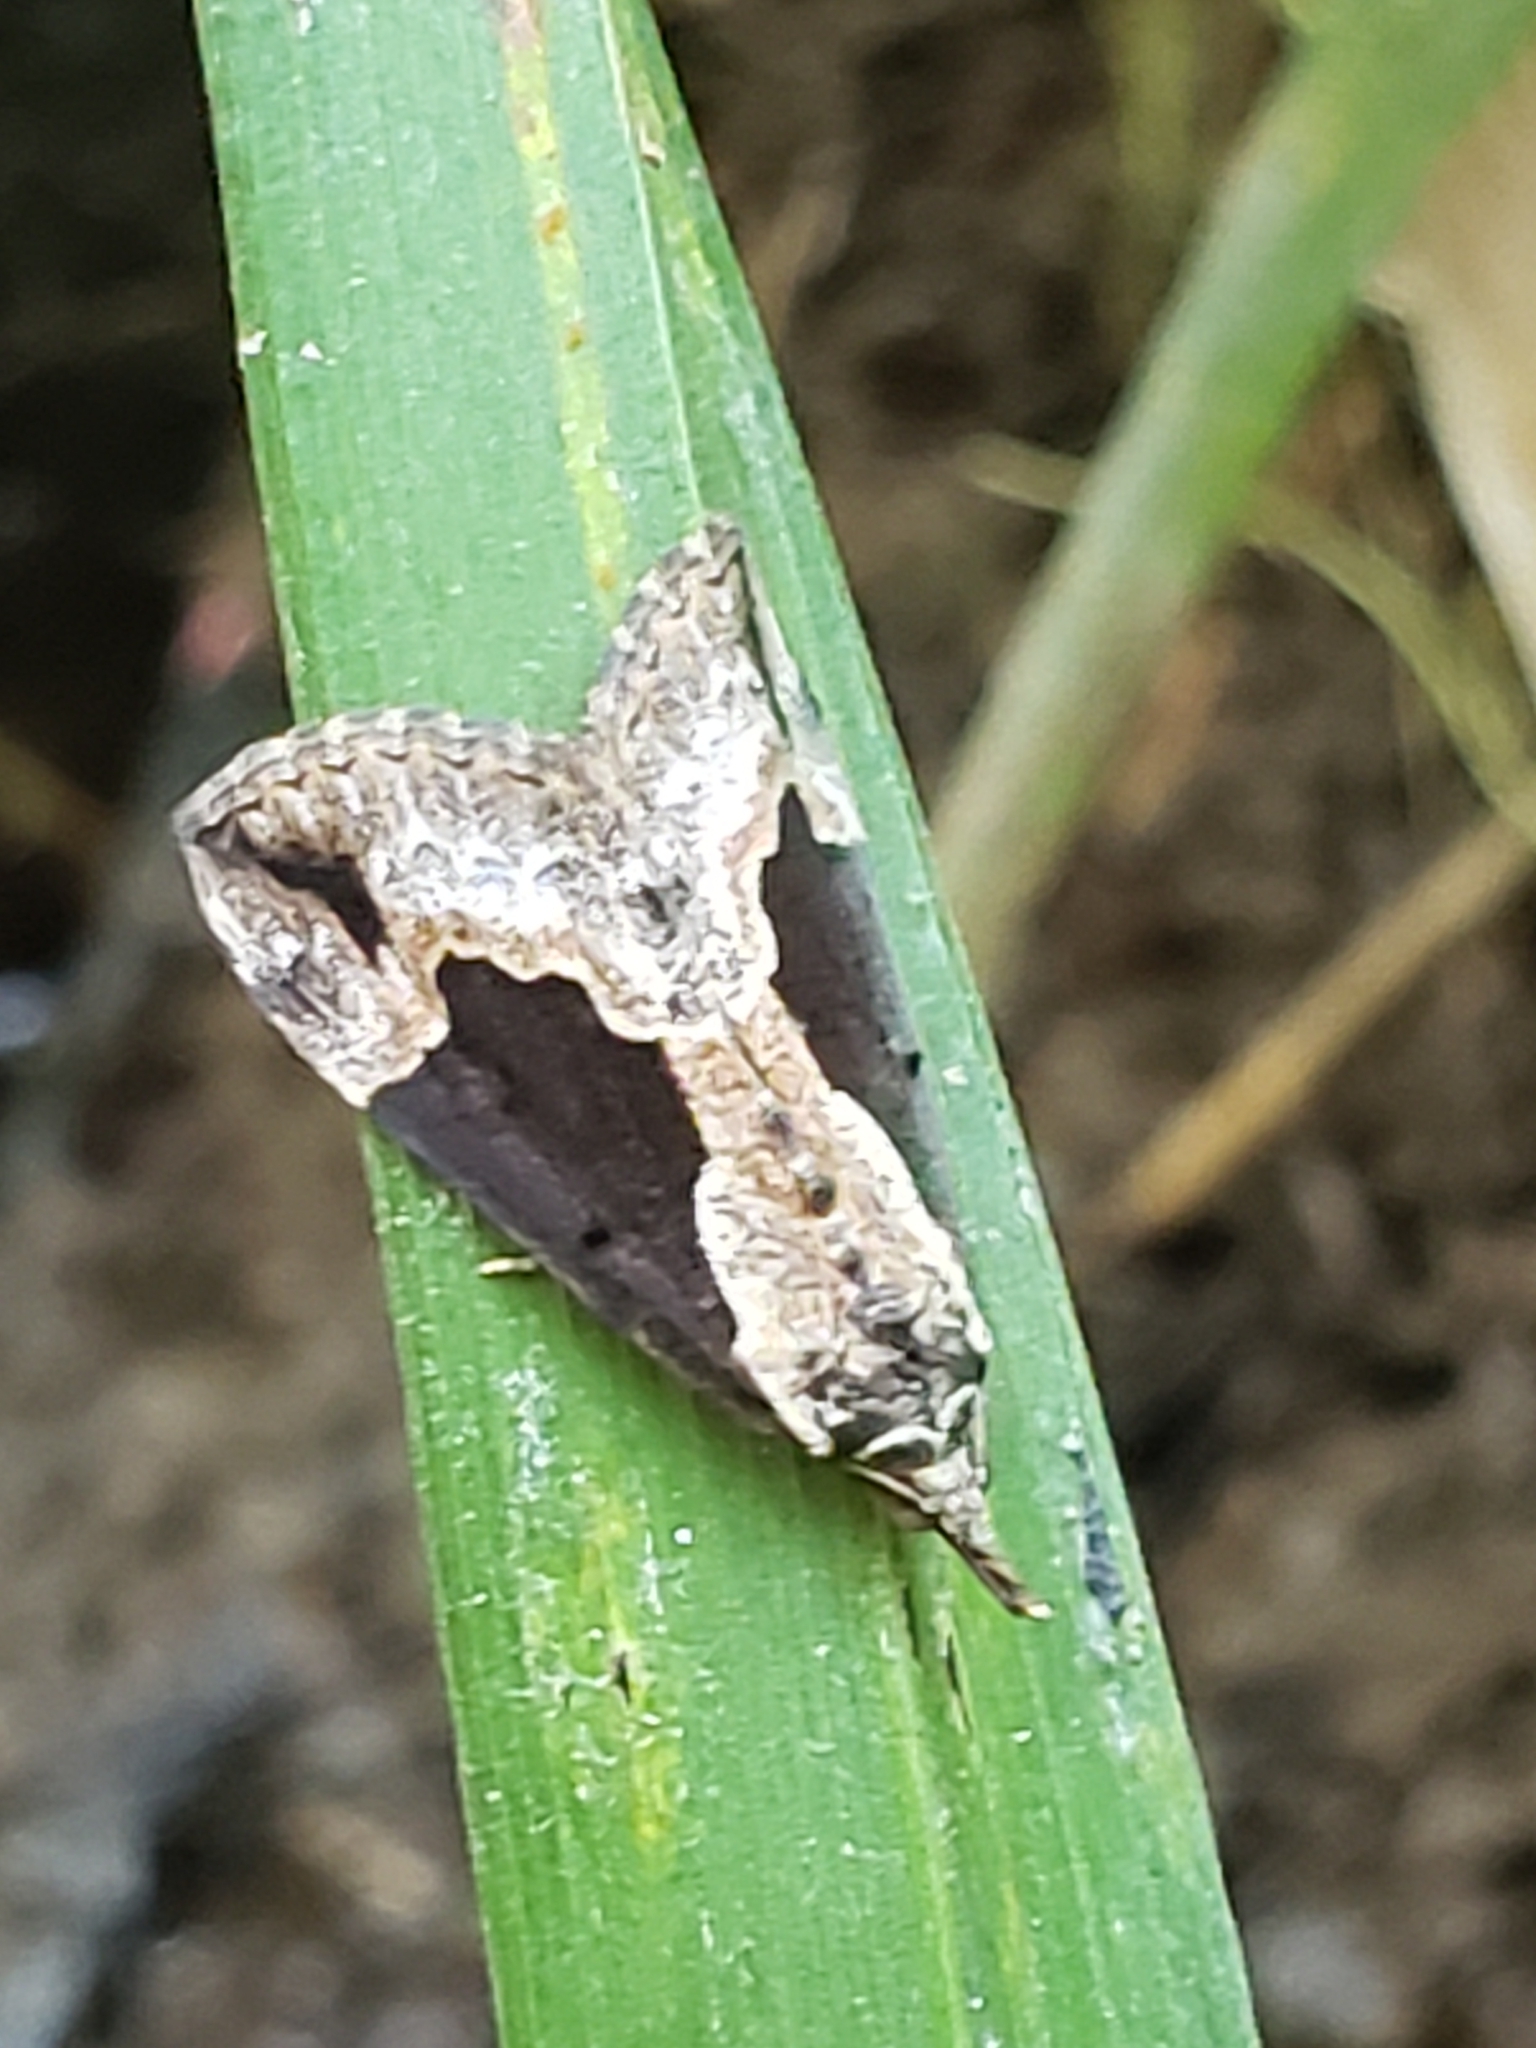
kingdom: Animalia
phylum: Arthropoda
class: Insecta
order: Lepidoptera
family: Erebidae
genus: Hypena
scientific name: Hypena baltimoralis
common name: Baltimore snout
